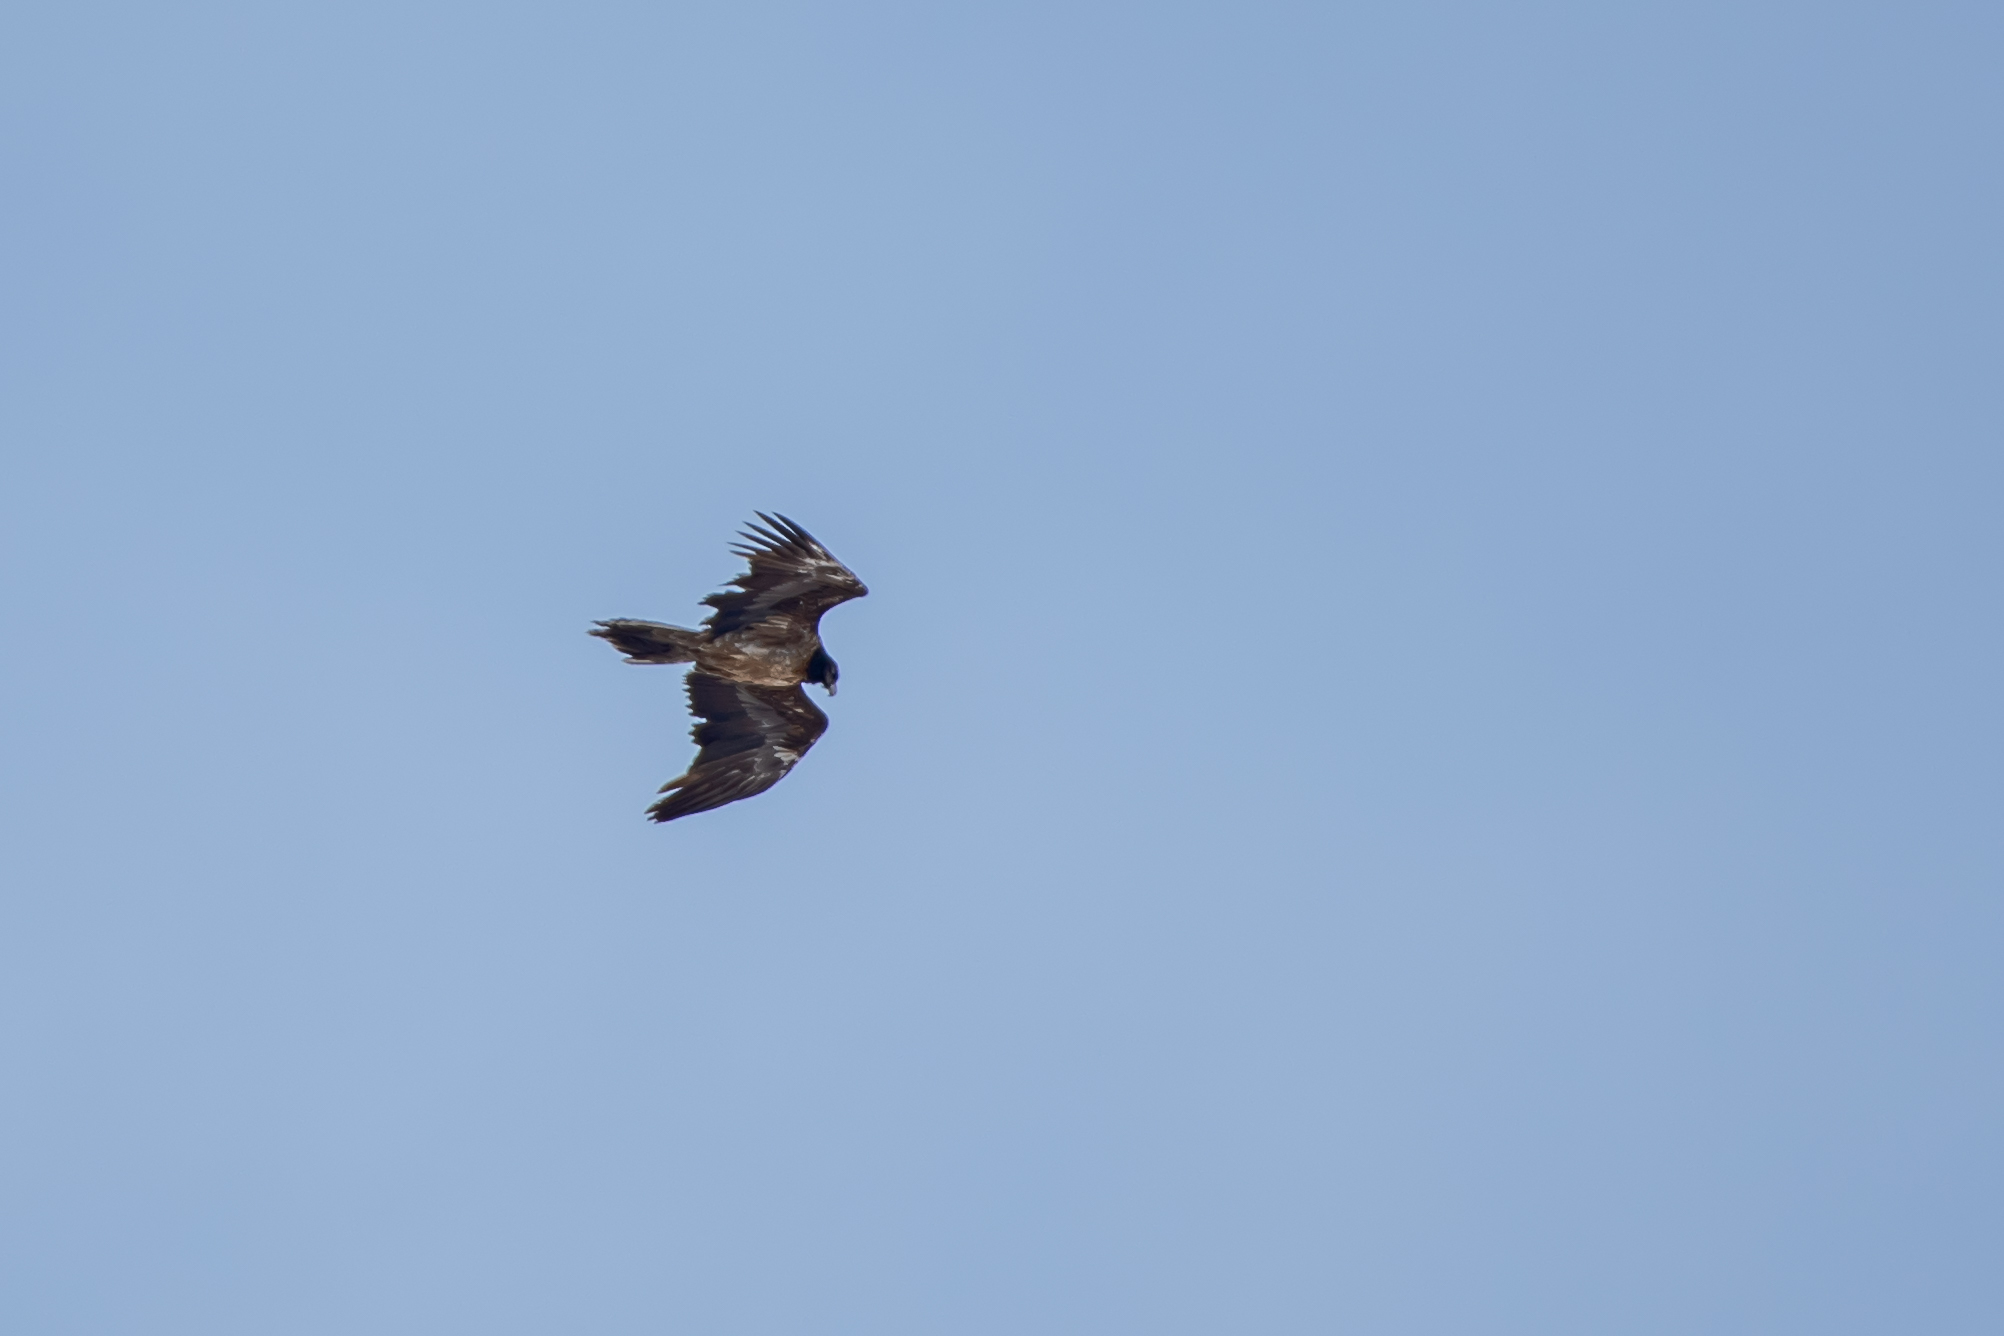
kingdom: Animalia
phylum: Chordata
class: Aves
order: Accipitriformes
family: Accipitridae
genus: Gypaetus
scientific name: Gypaetus barbatus
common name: Bearded vulture
